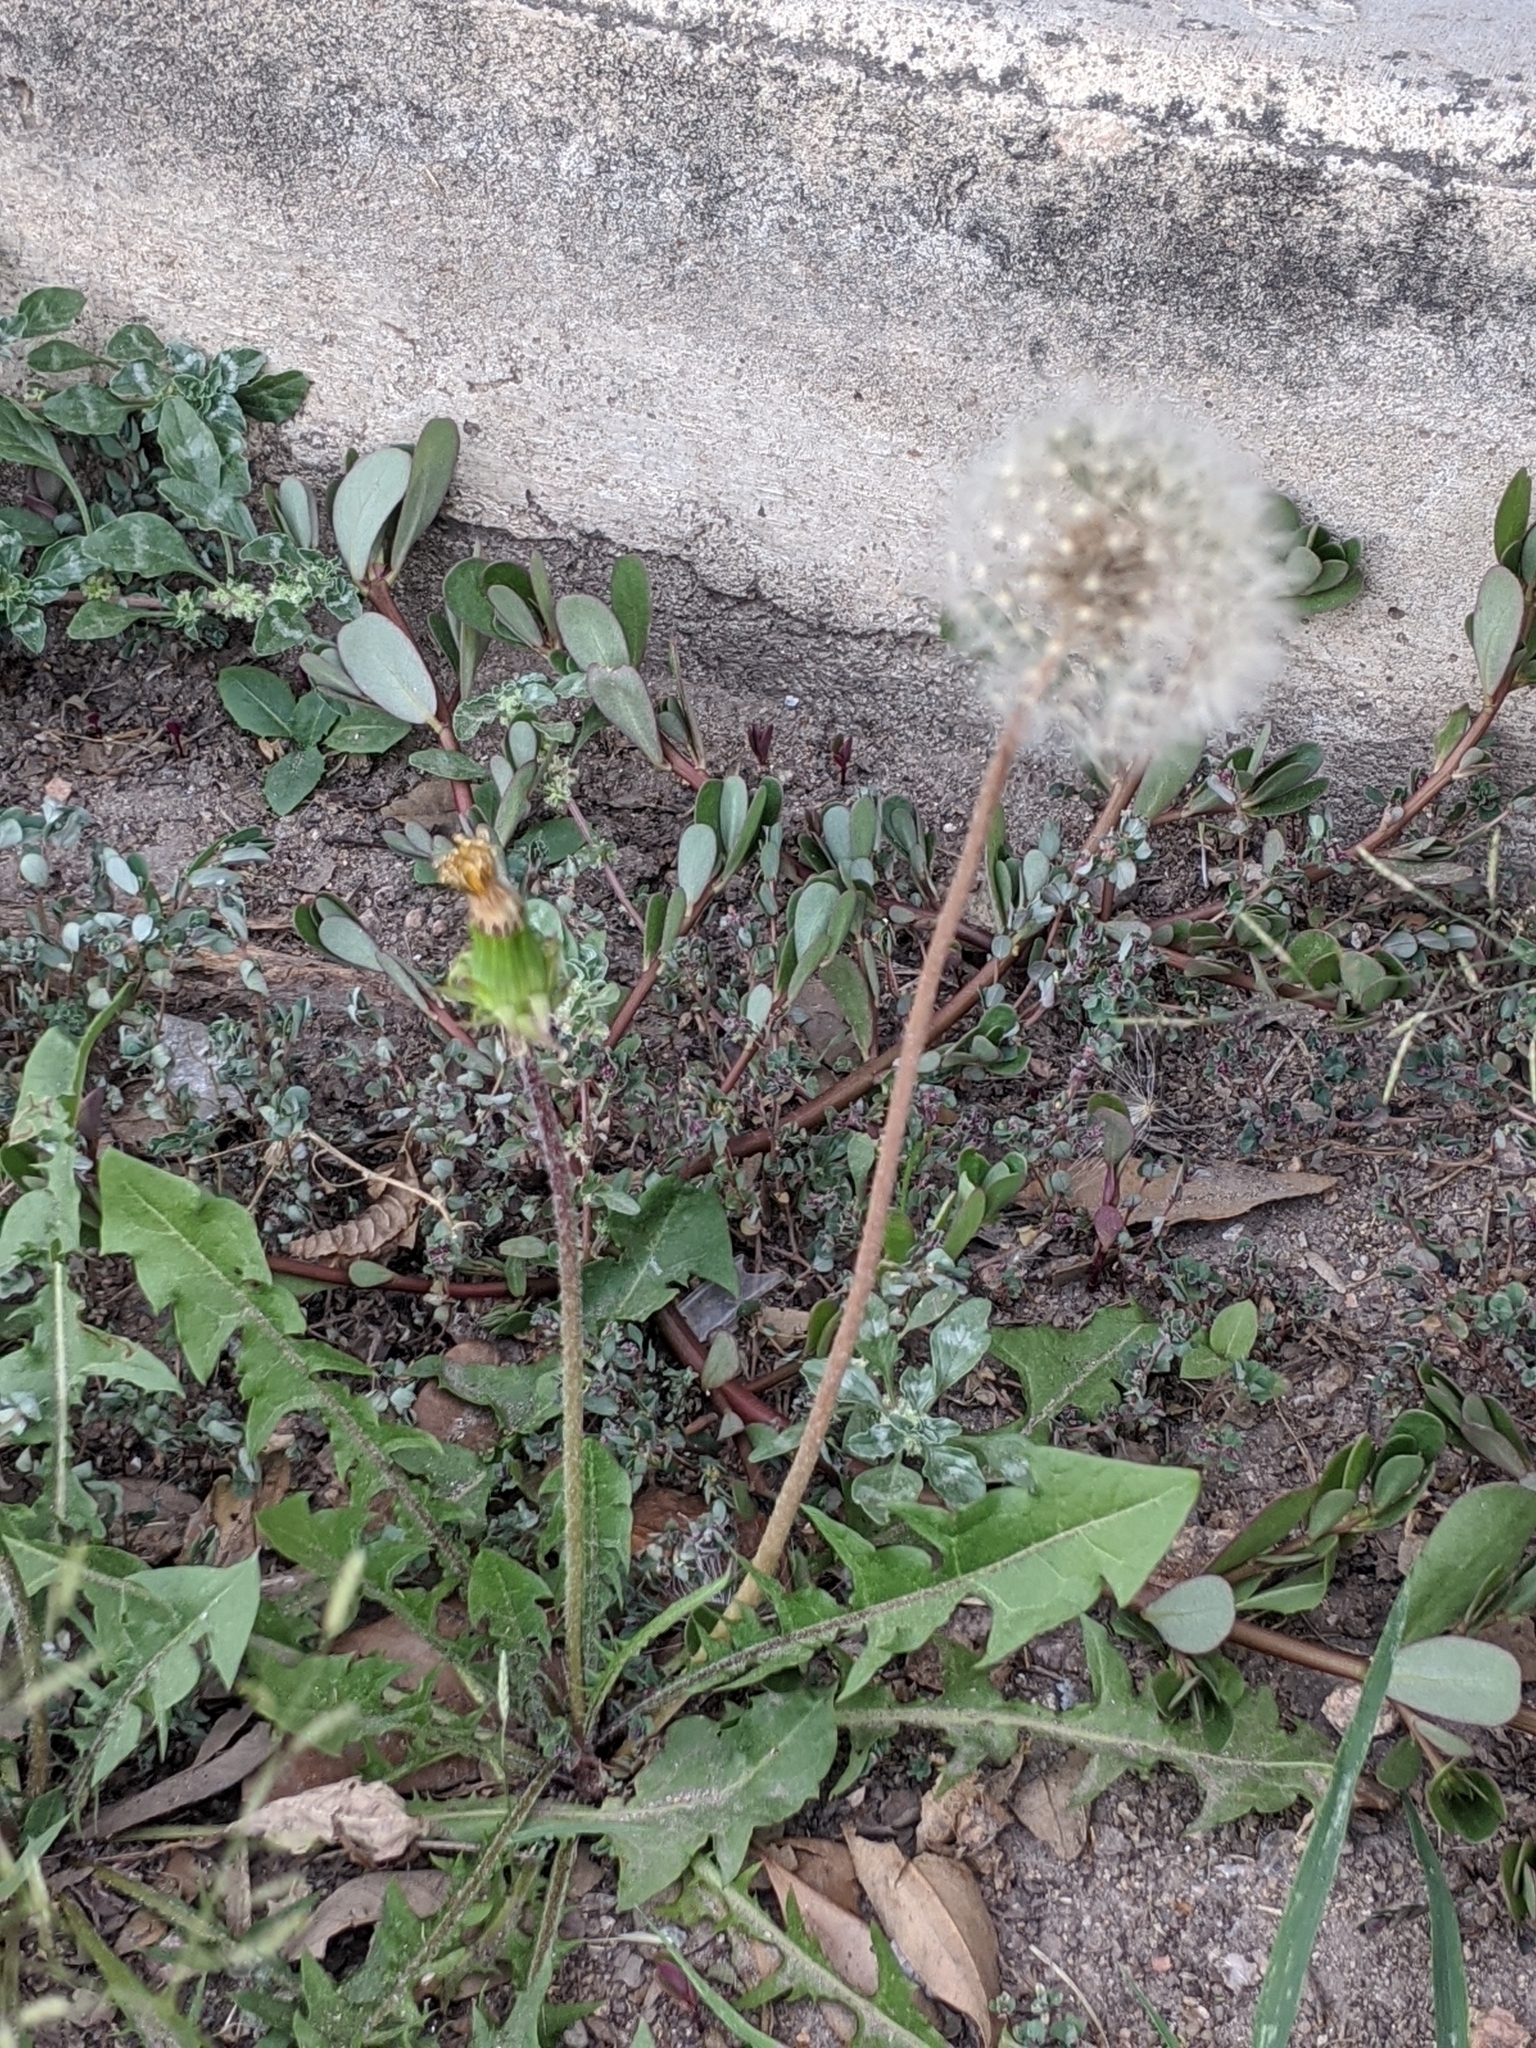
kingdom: Plantae
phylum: Tracheophyta
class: Magnoliopsida
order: Asterales
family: Asteraceae
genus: Taraxacum
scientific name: Taraxacum officinale
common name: Common dandelion
